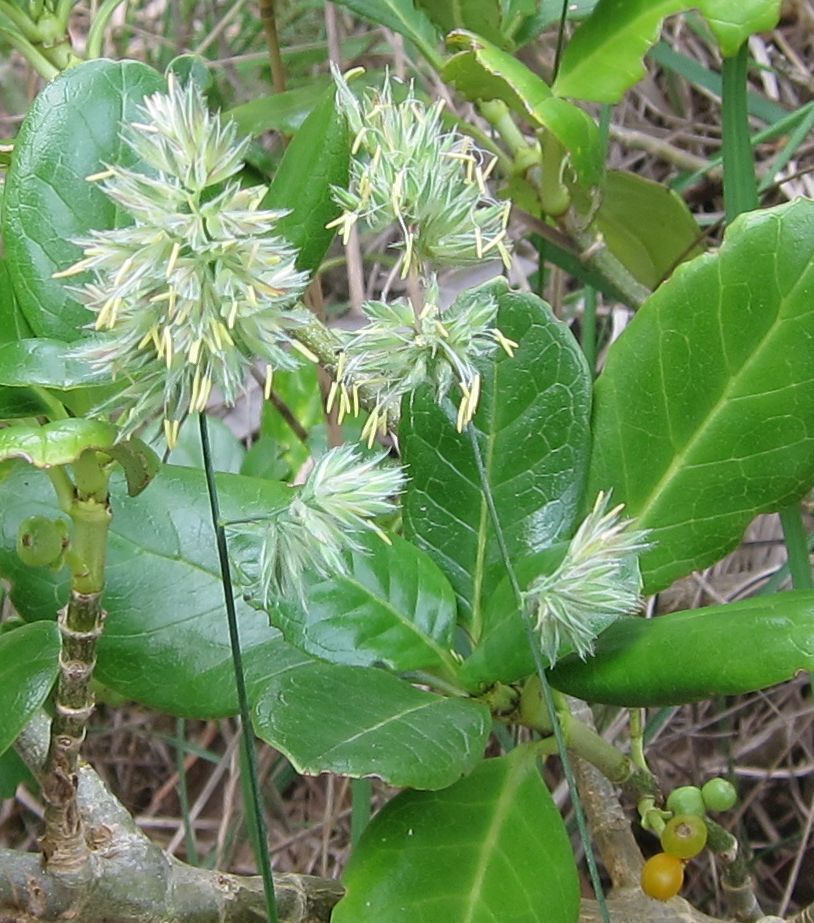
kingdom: Plantae
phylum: Tracheophyta
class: Liliopsida
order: Poales
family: Poaceae
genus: Dactylis
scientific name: Dactylis glomerata
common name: Orchardgrass
